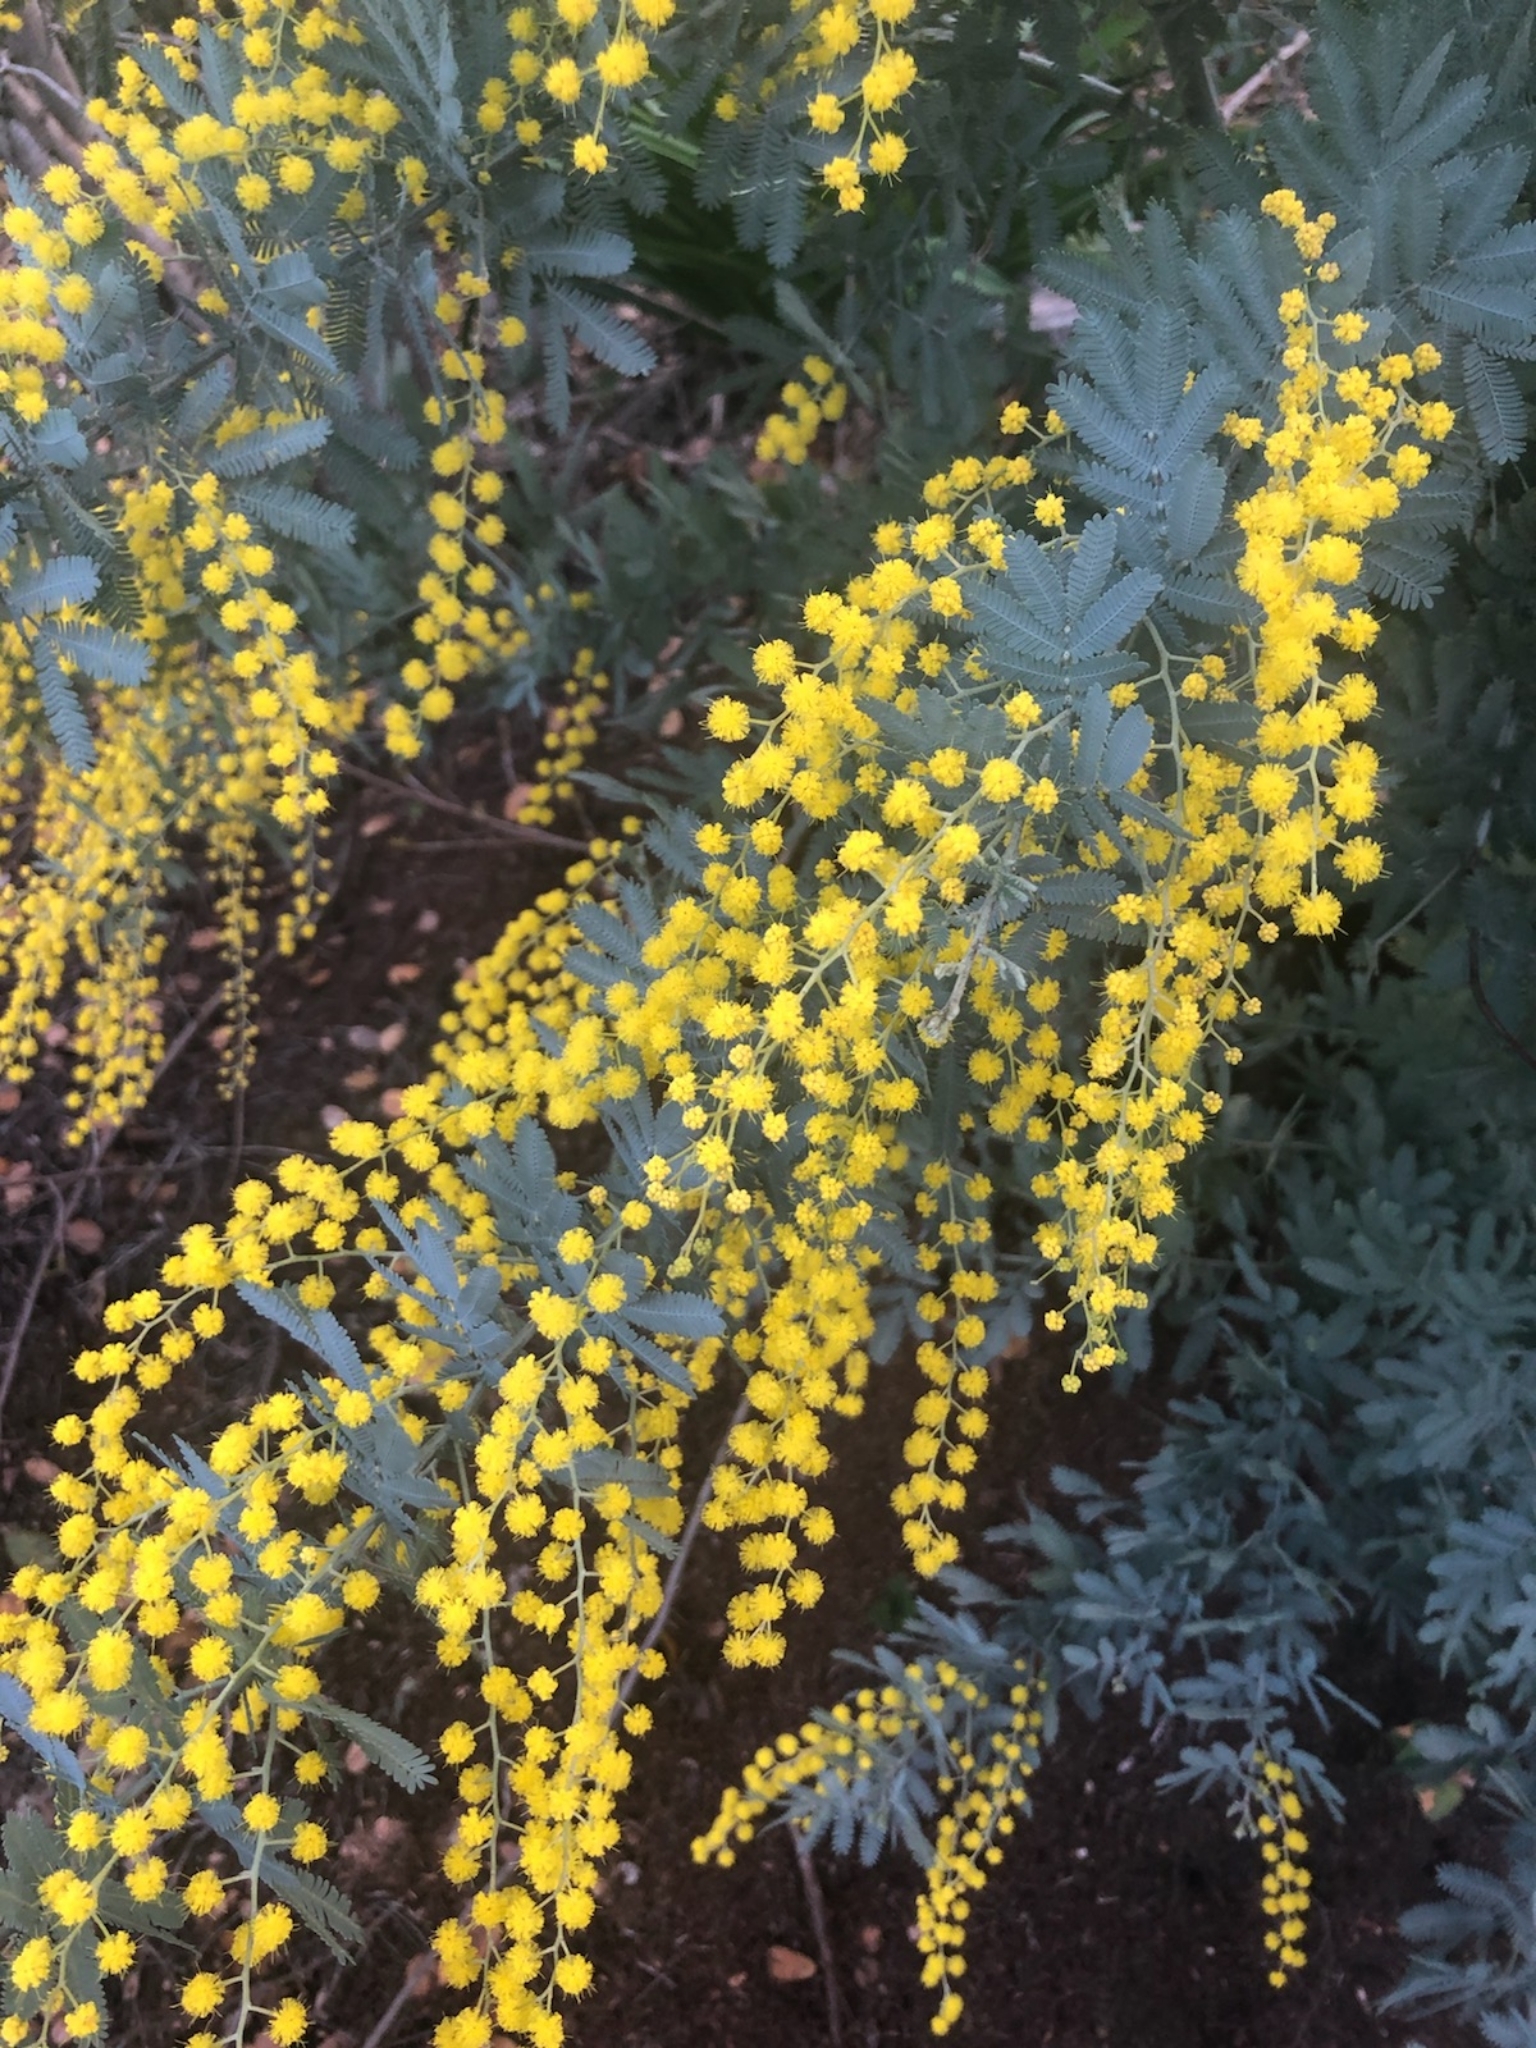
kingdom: Plantae
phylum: Tracheophyta
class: Magnoliopsida
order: Fabales
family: Fabaceae
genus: Acacia
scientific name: Acacia baileyana
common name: Cootamundra wattle
